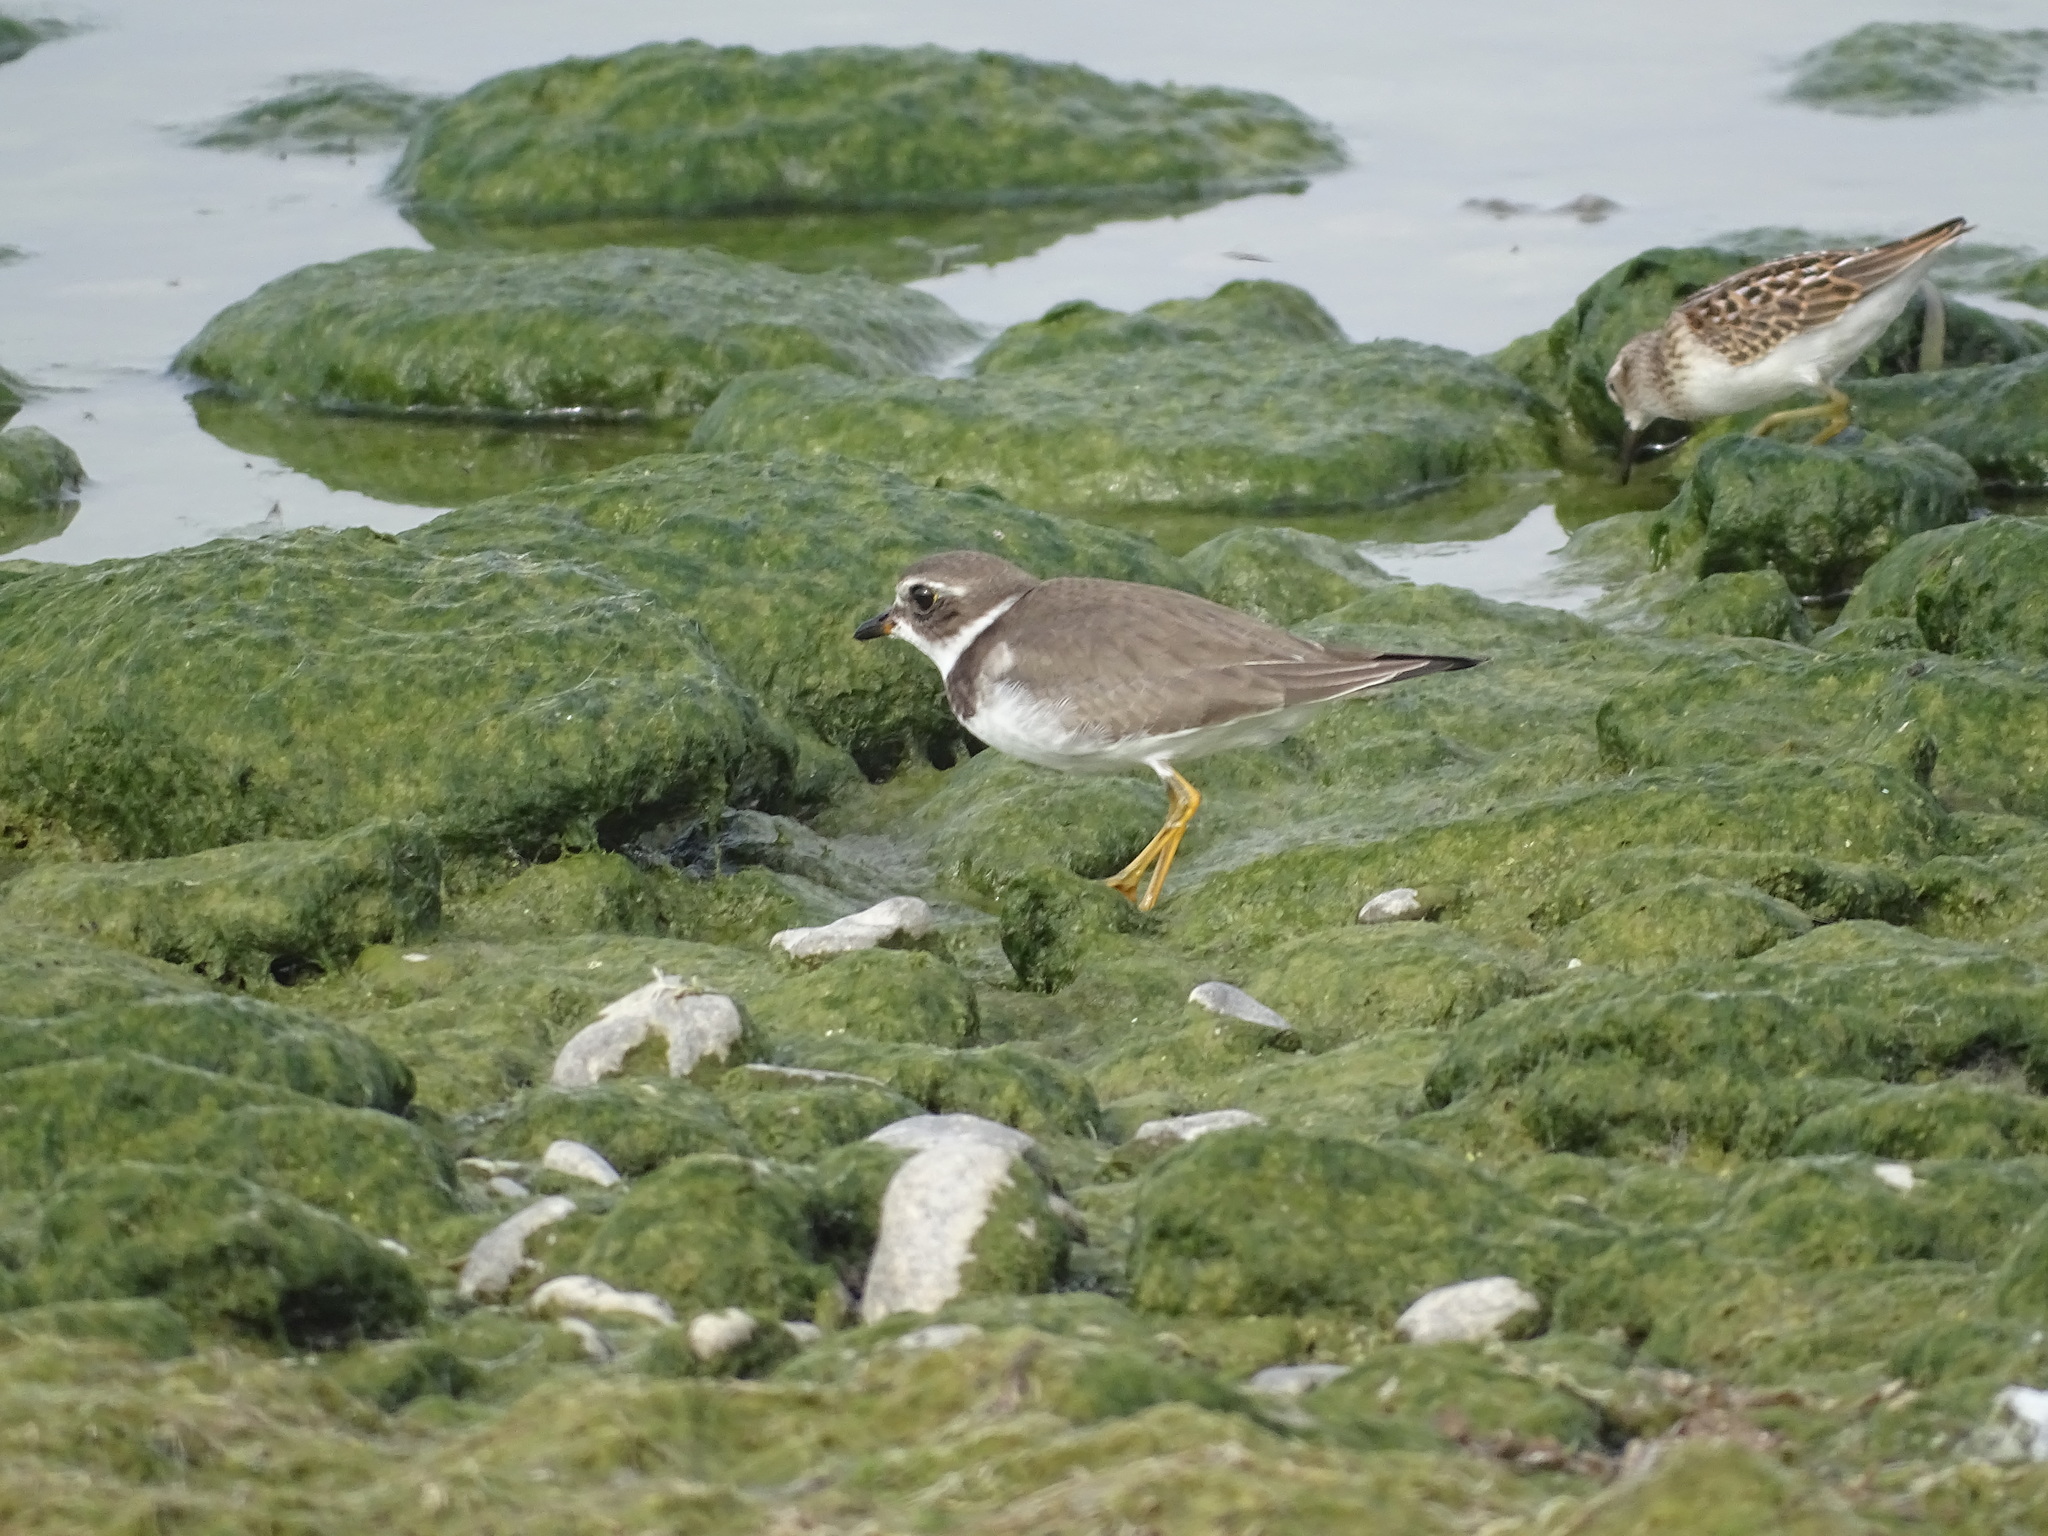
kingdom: Animalia
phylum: Chordata
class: Aves
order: Charadriiformes
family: Charadriidae
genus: Charadrius
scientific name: Charadrius semipalmatus
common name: Semipalmated plover
